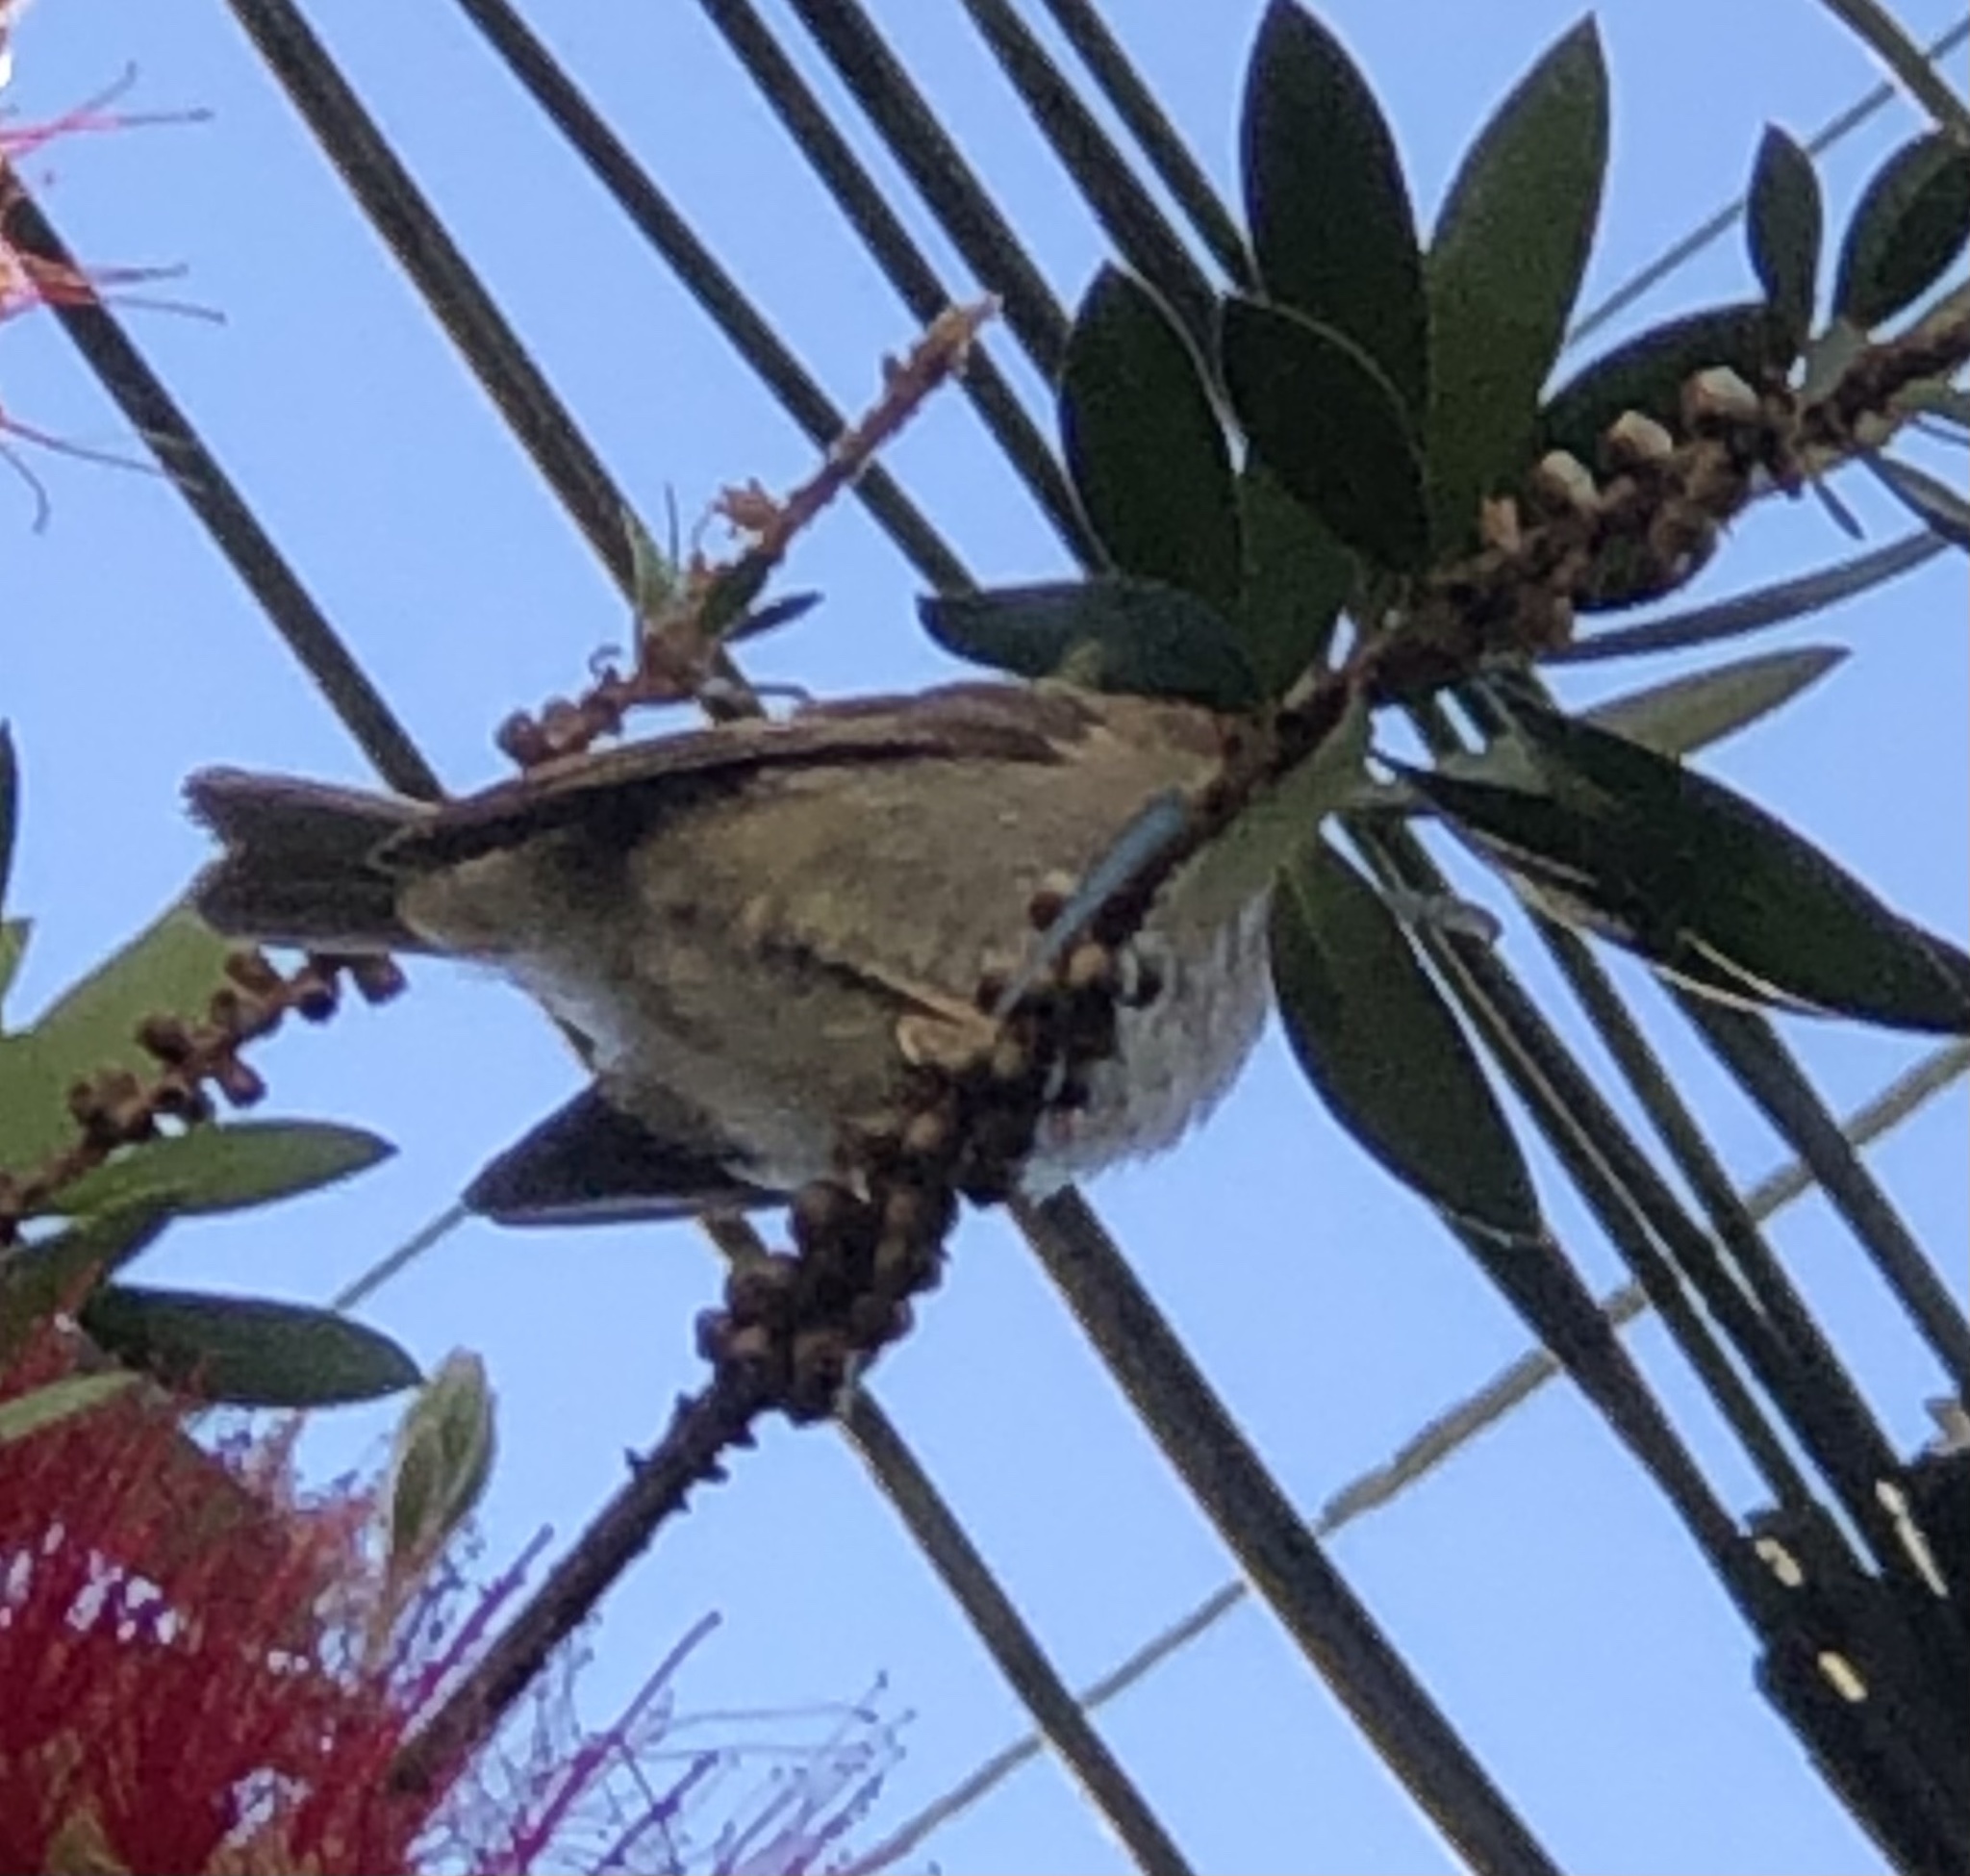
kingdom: Animalia
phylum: Chordata
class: Aves
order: Passeriformes
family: Passeridae
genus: Passer
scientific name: Passer domesticus
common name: House sparrow
